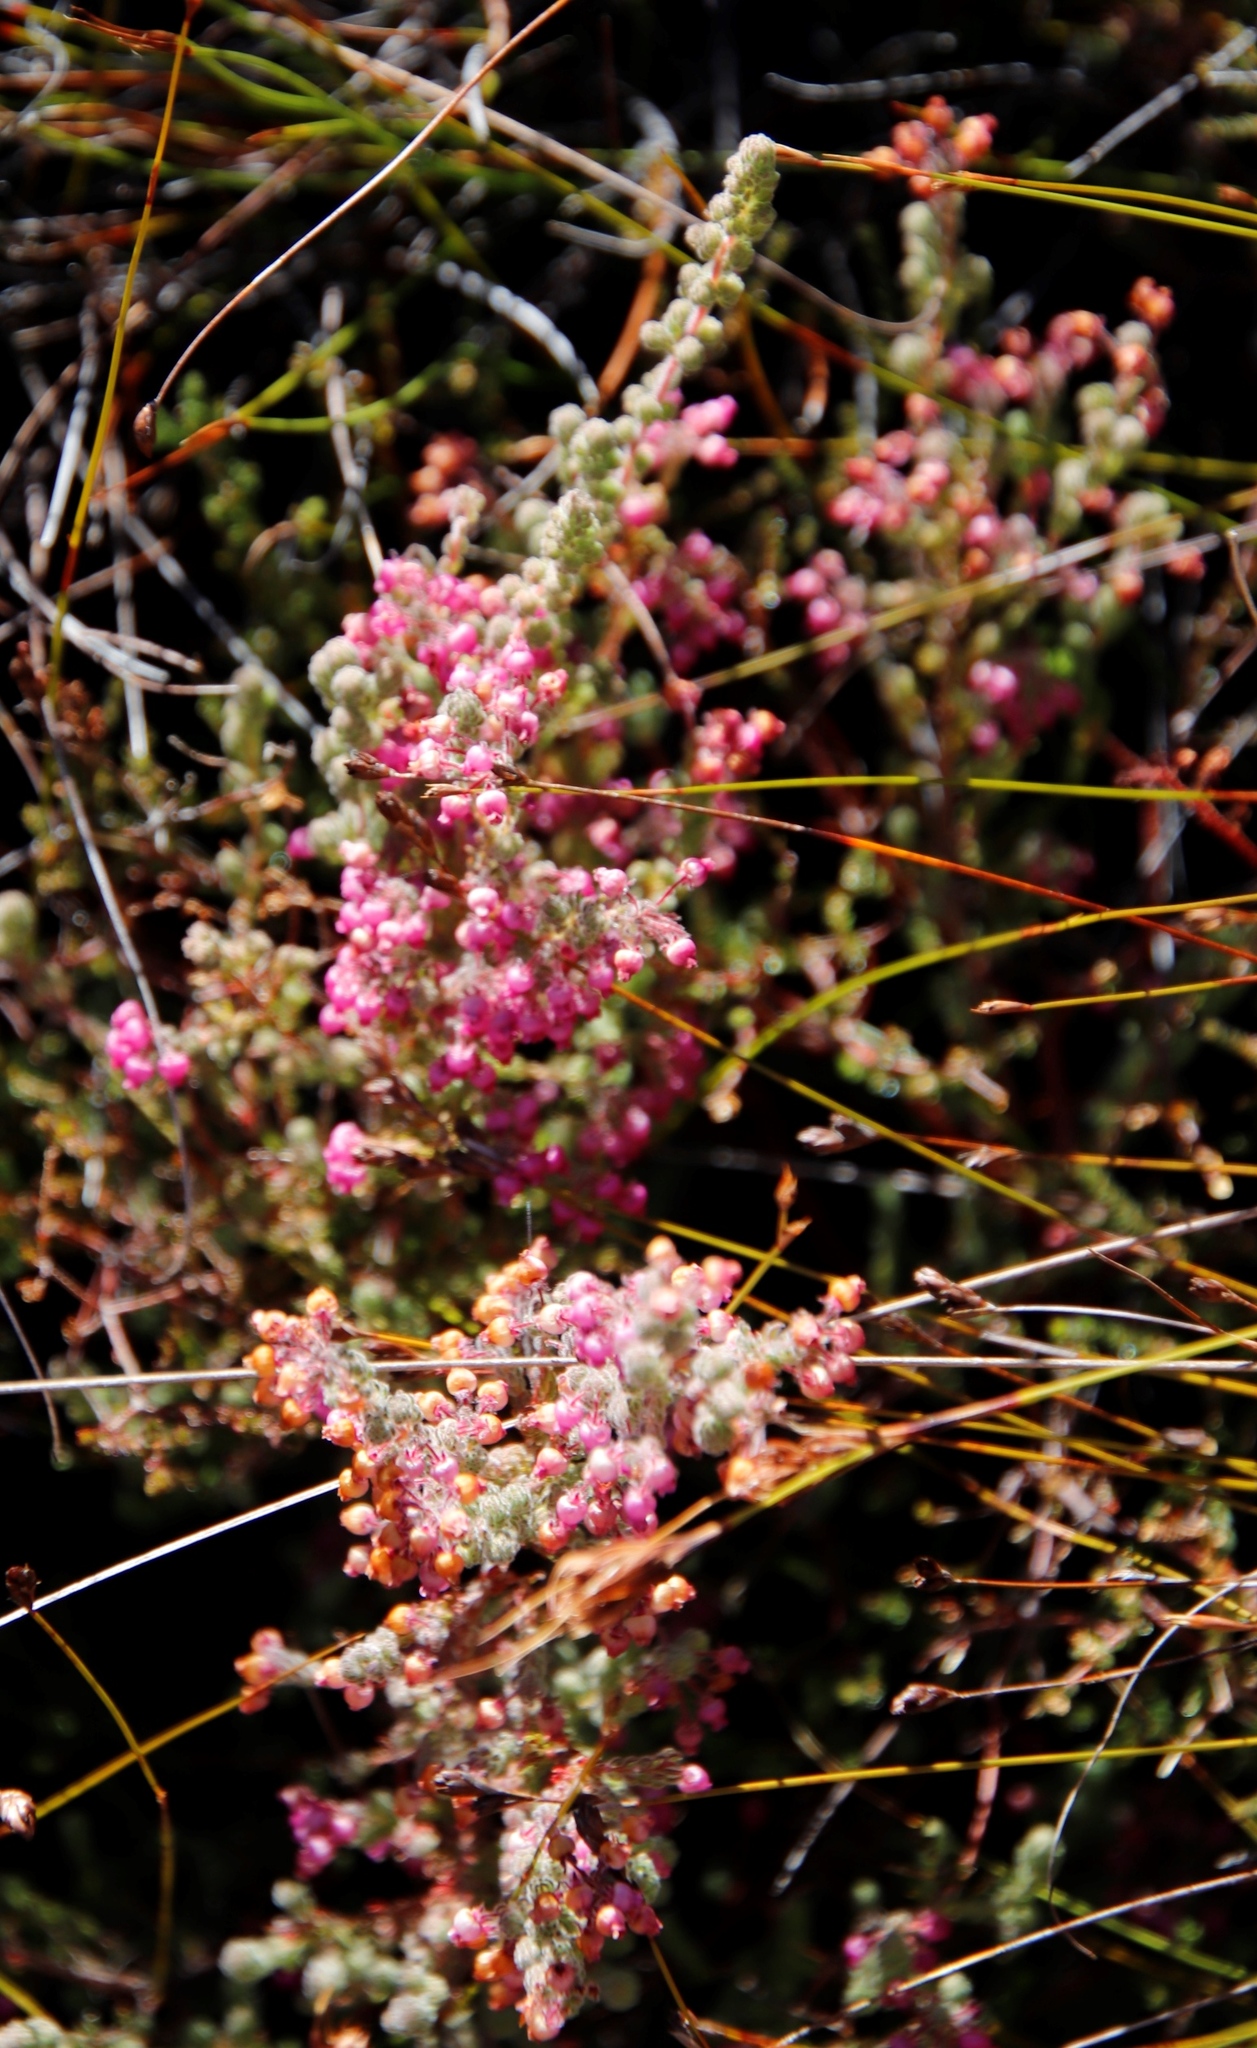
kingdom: Plantae
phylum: Tracheophyta
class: Magnoliopsida
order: Ericales
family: Ericaceae
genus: Erica
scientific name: Erica bergiana
